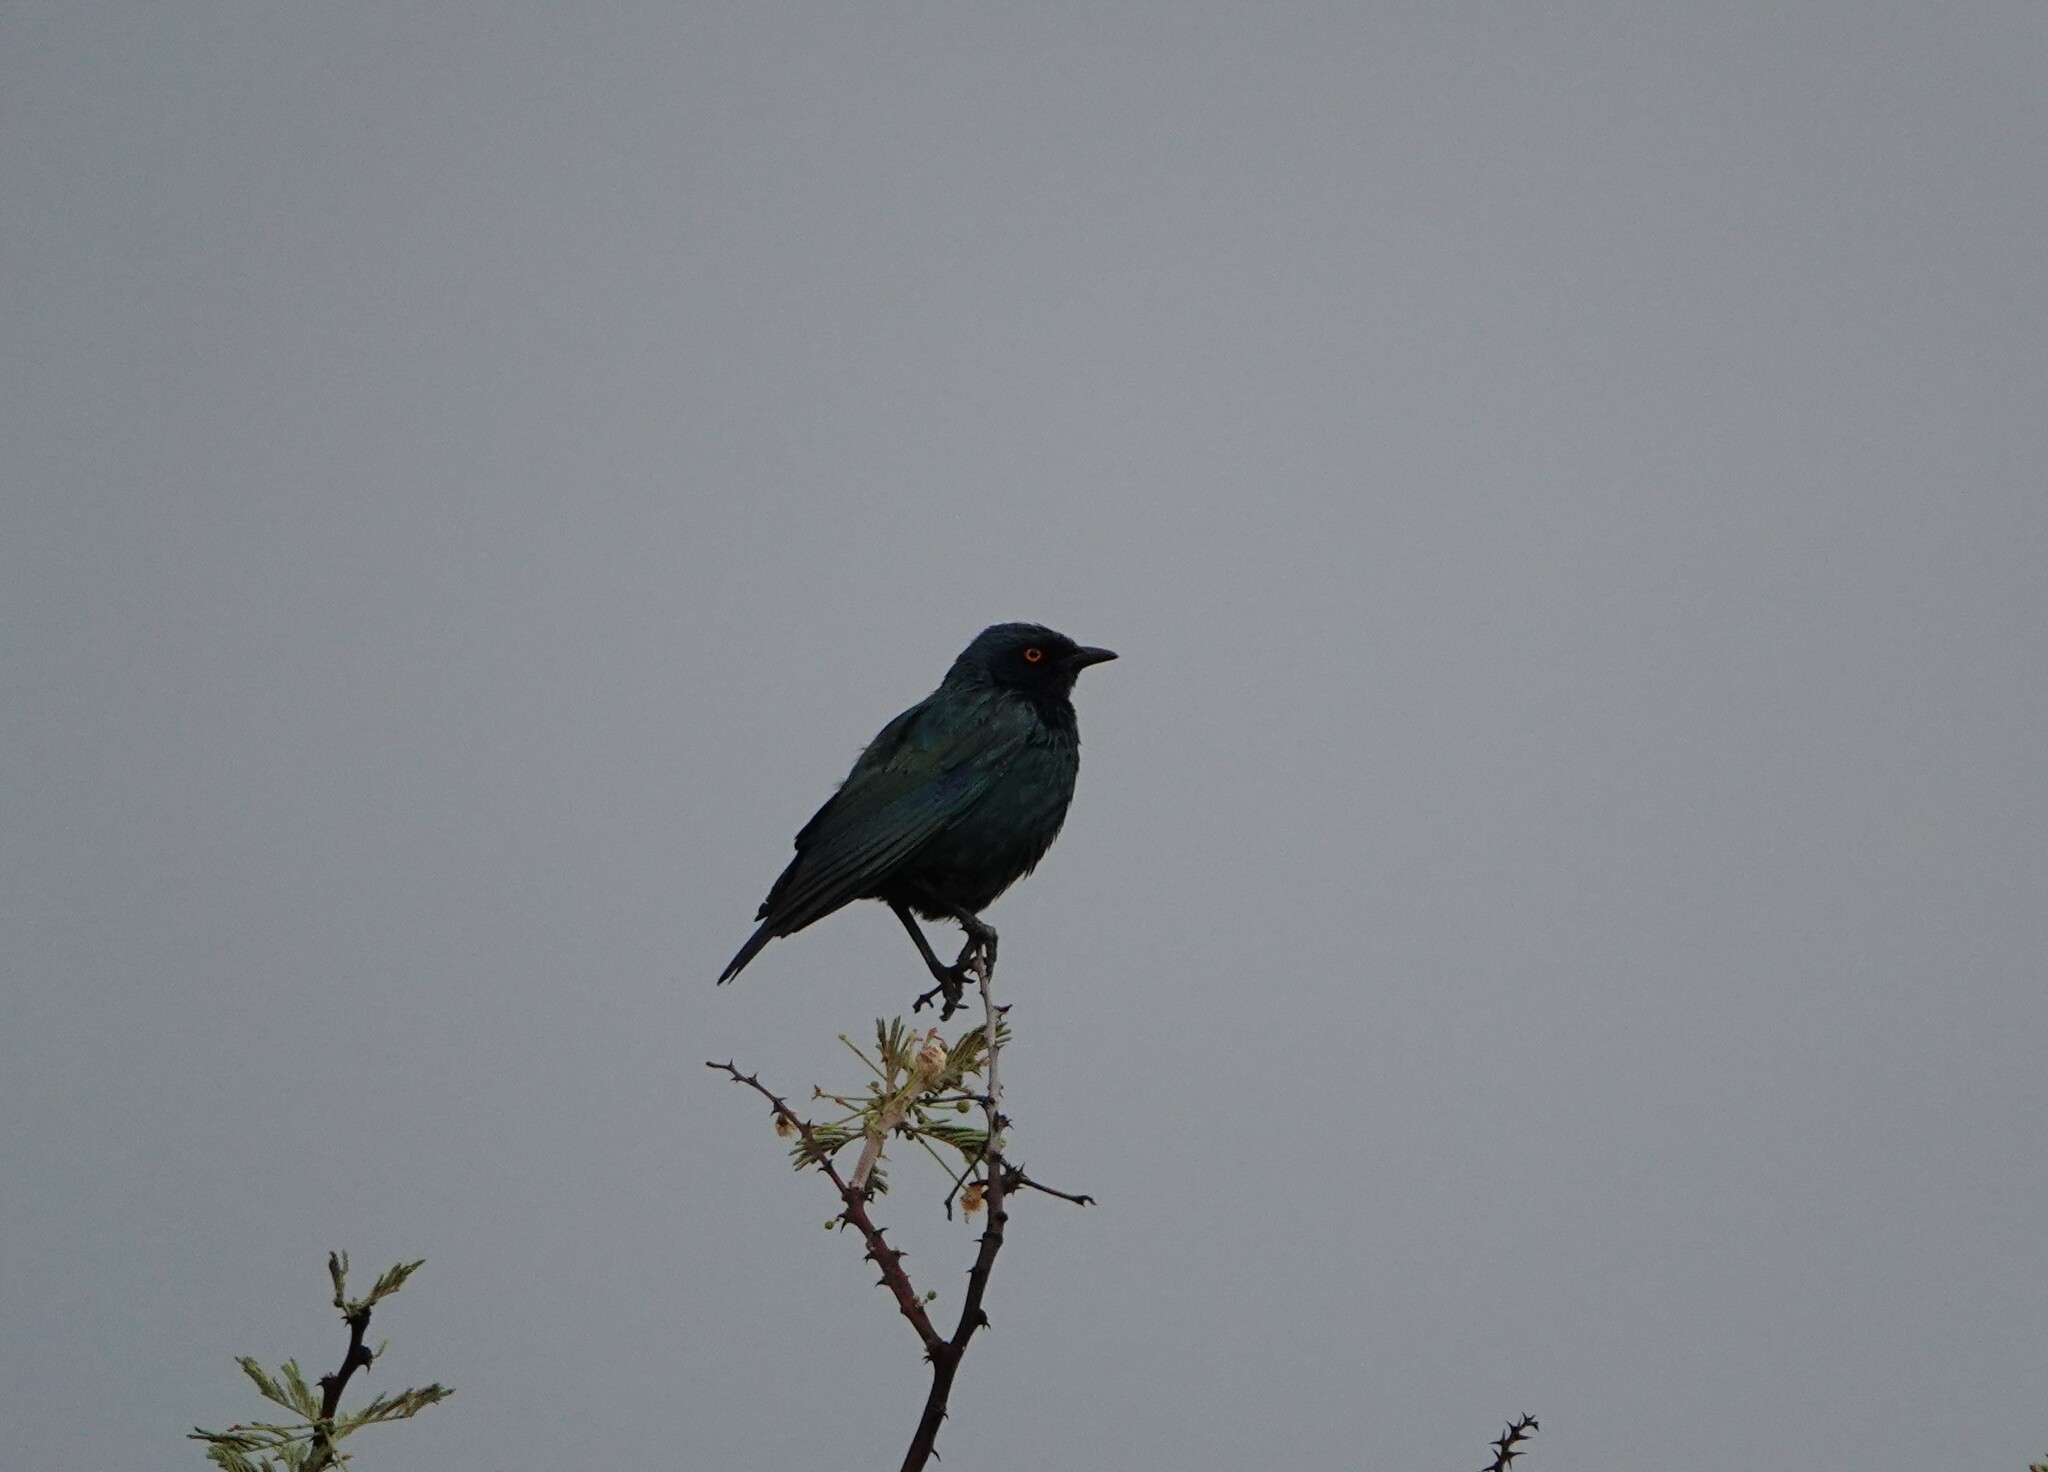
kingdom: Animalia
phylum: Chordata
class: Aves
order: Passeriformes
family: Sturnidae
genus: Lamprotornis
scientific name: Lamprotornis nitens
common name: Cape starling
